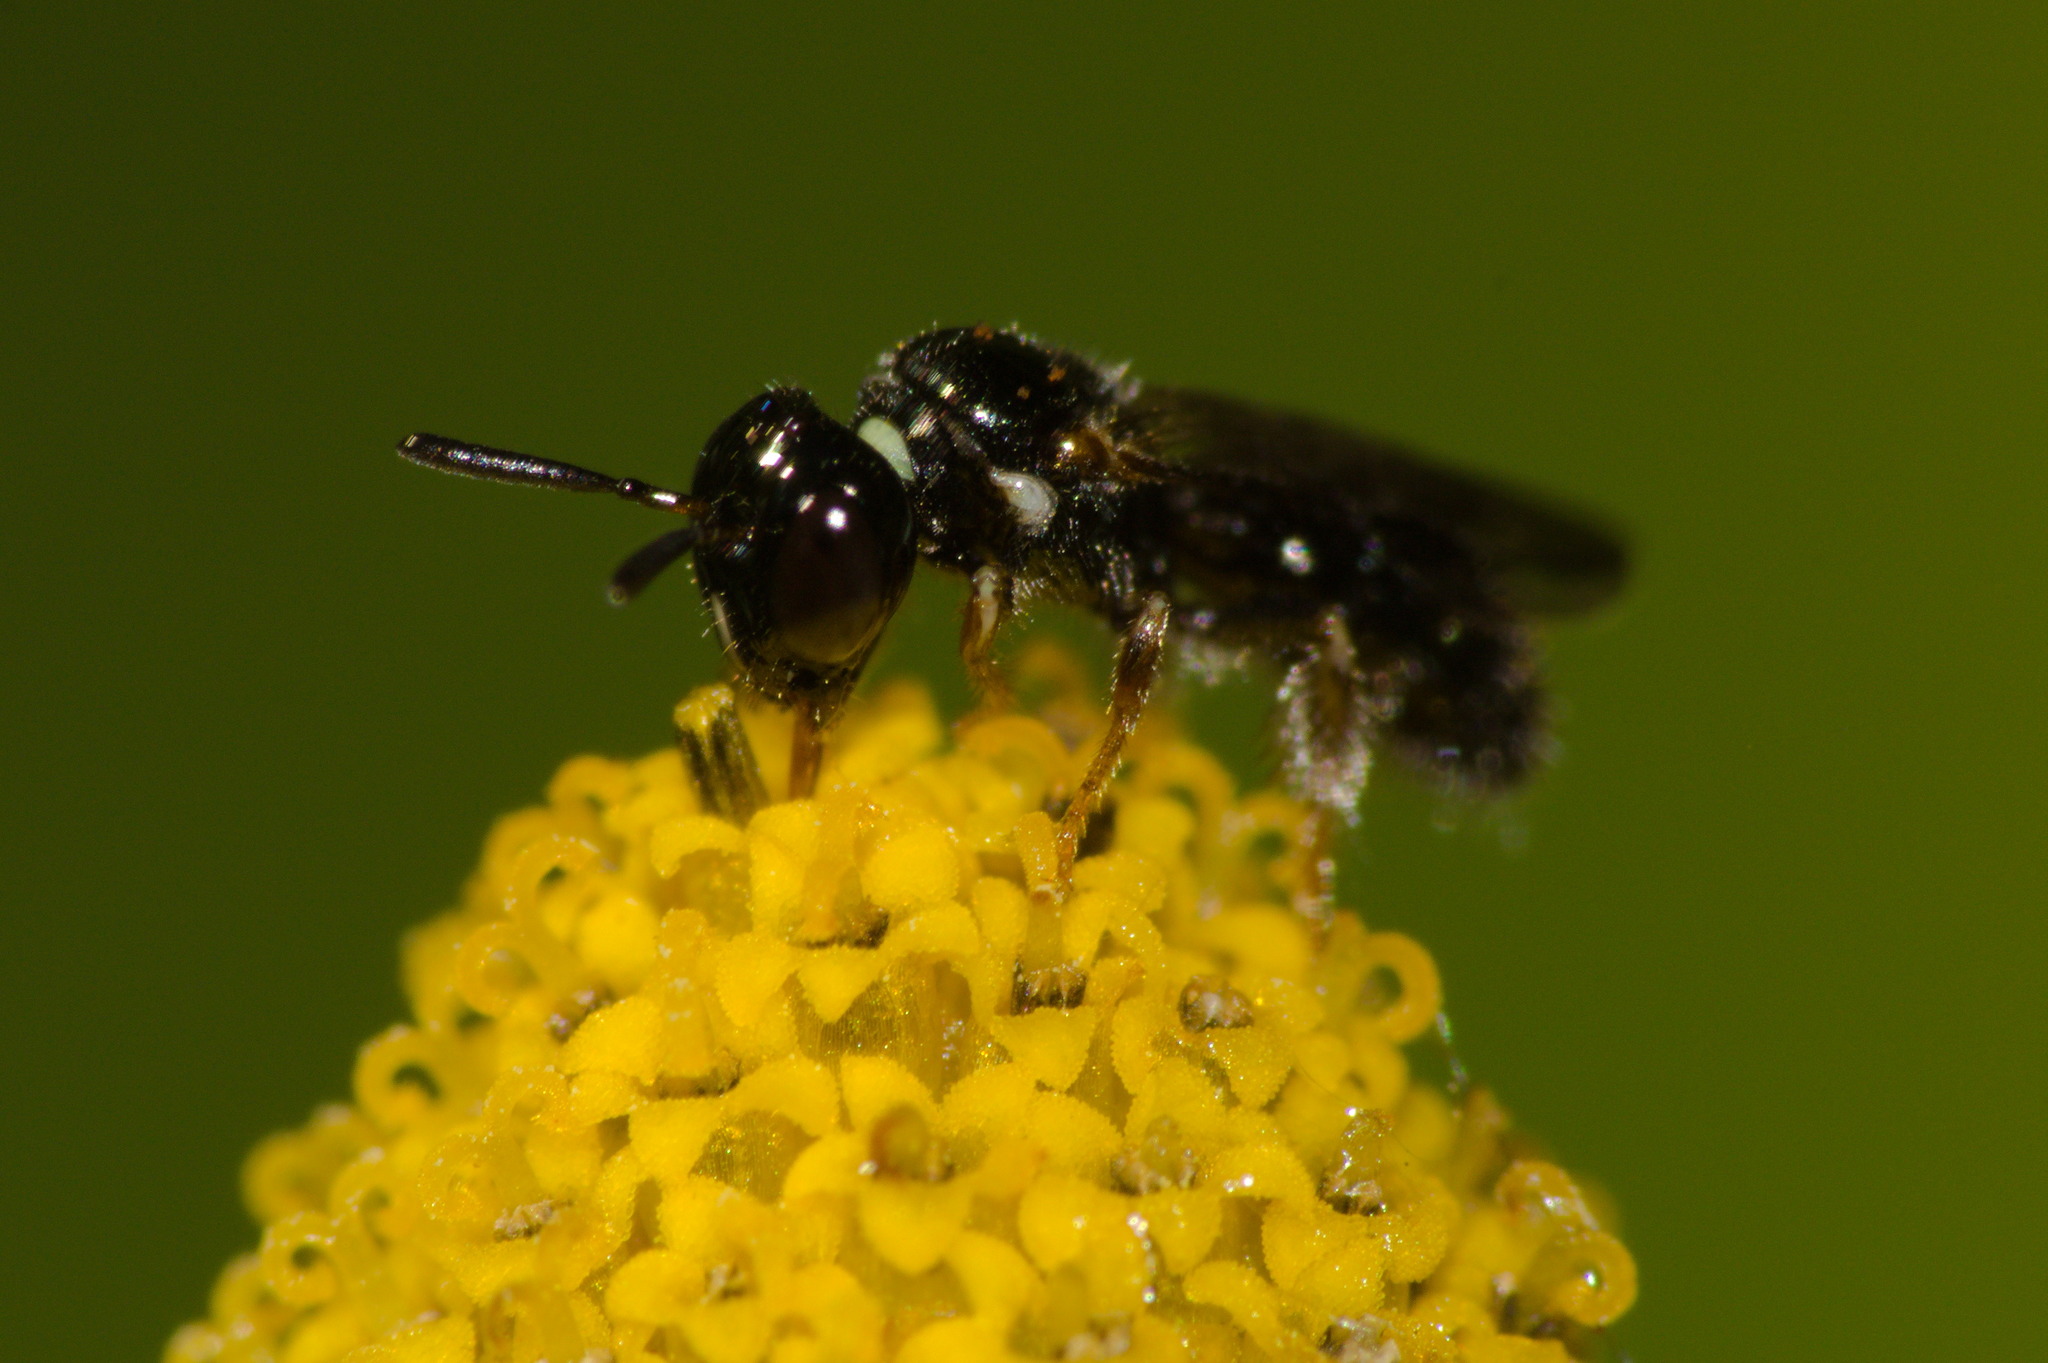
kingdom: Animalia
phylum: Arthropoda
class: Insecta
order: Hymenoptera
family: Apidae
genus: Ceratinula
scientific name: Ceratinula
